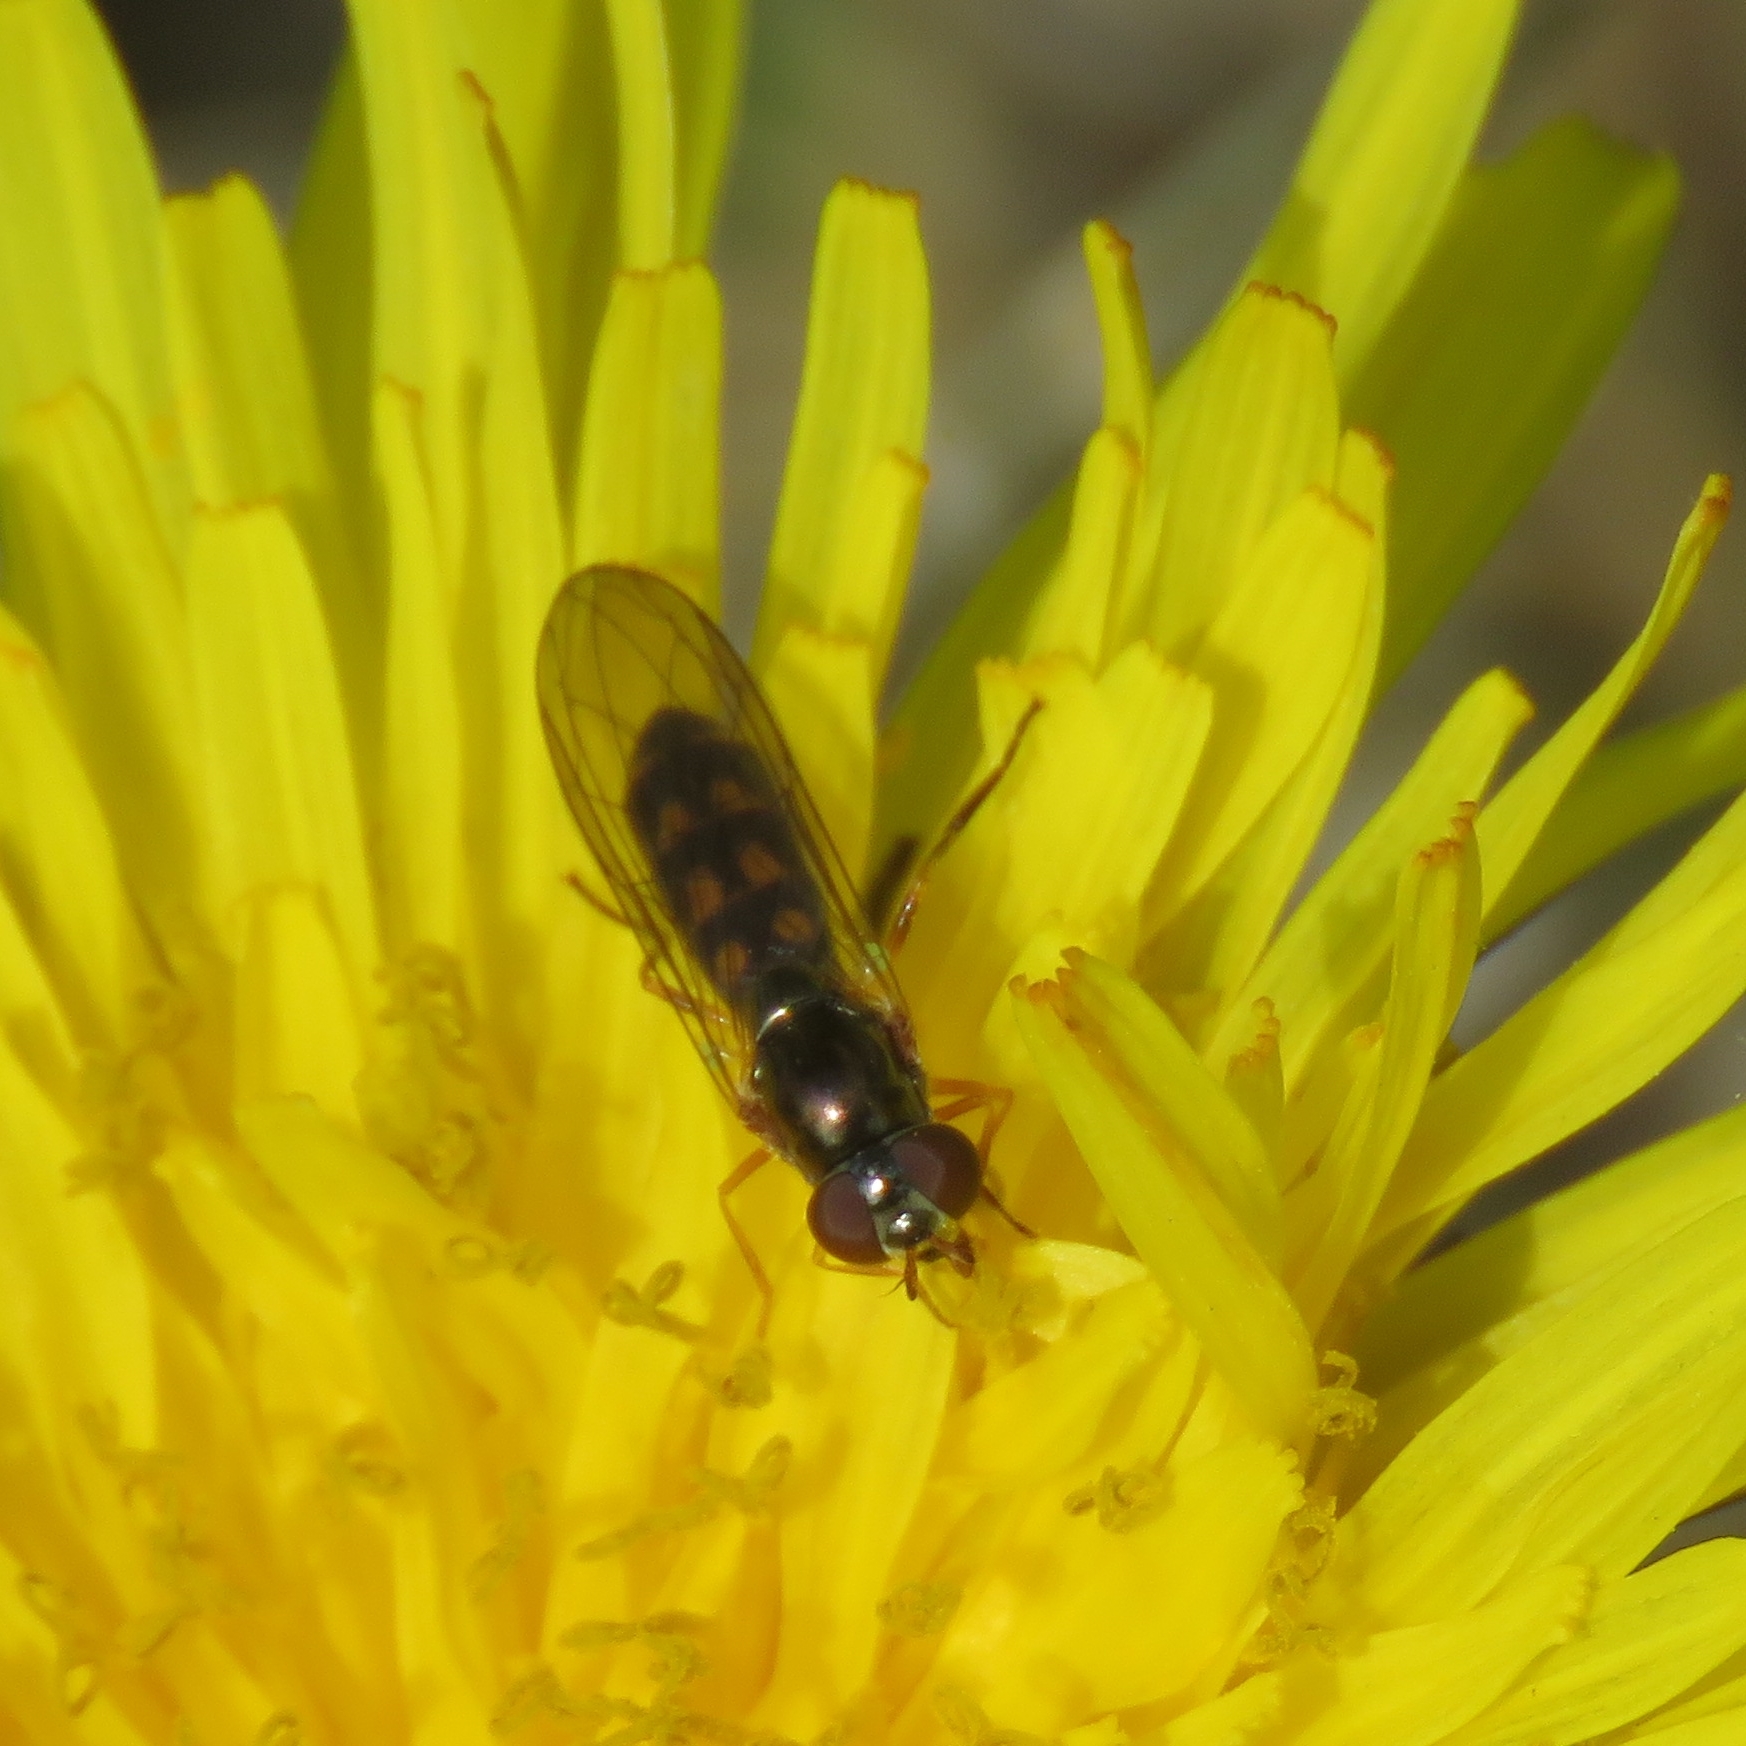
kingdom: Animalia
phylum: Arthropoda
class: Insecta
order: Diptera
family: Syrphidae
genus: Melanostoma
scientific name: Melanostoma scalare
